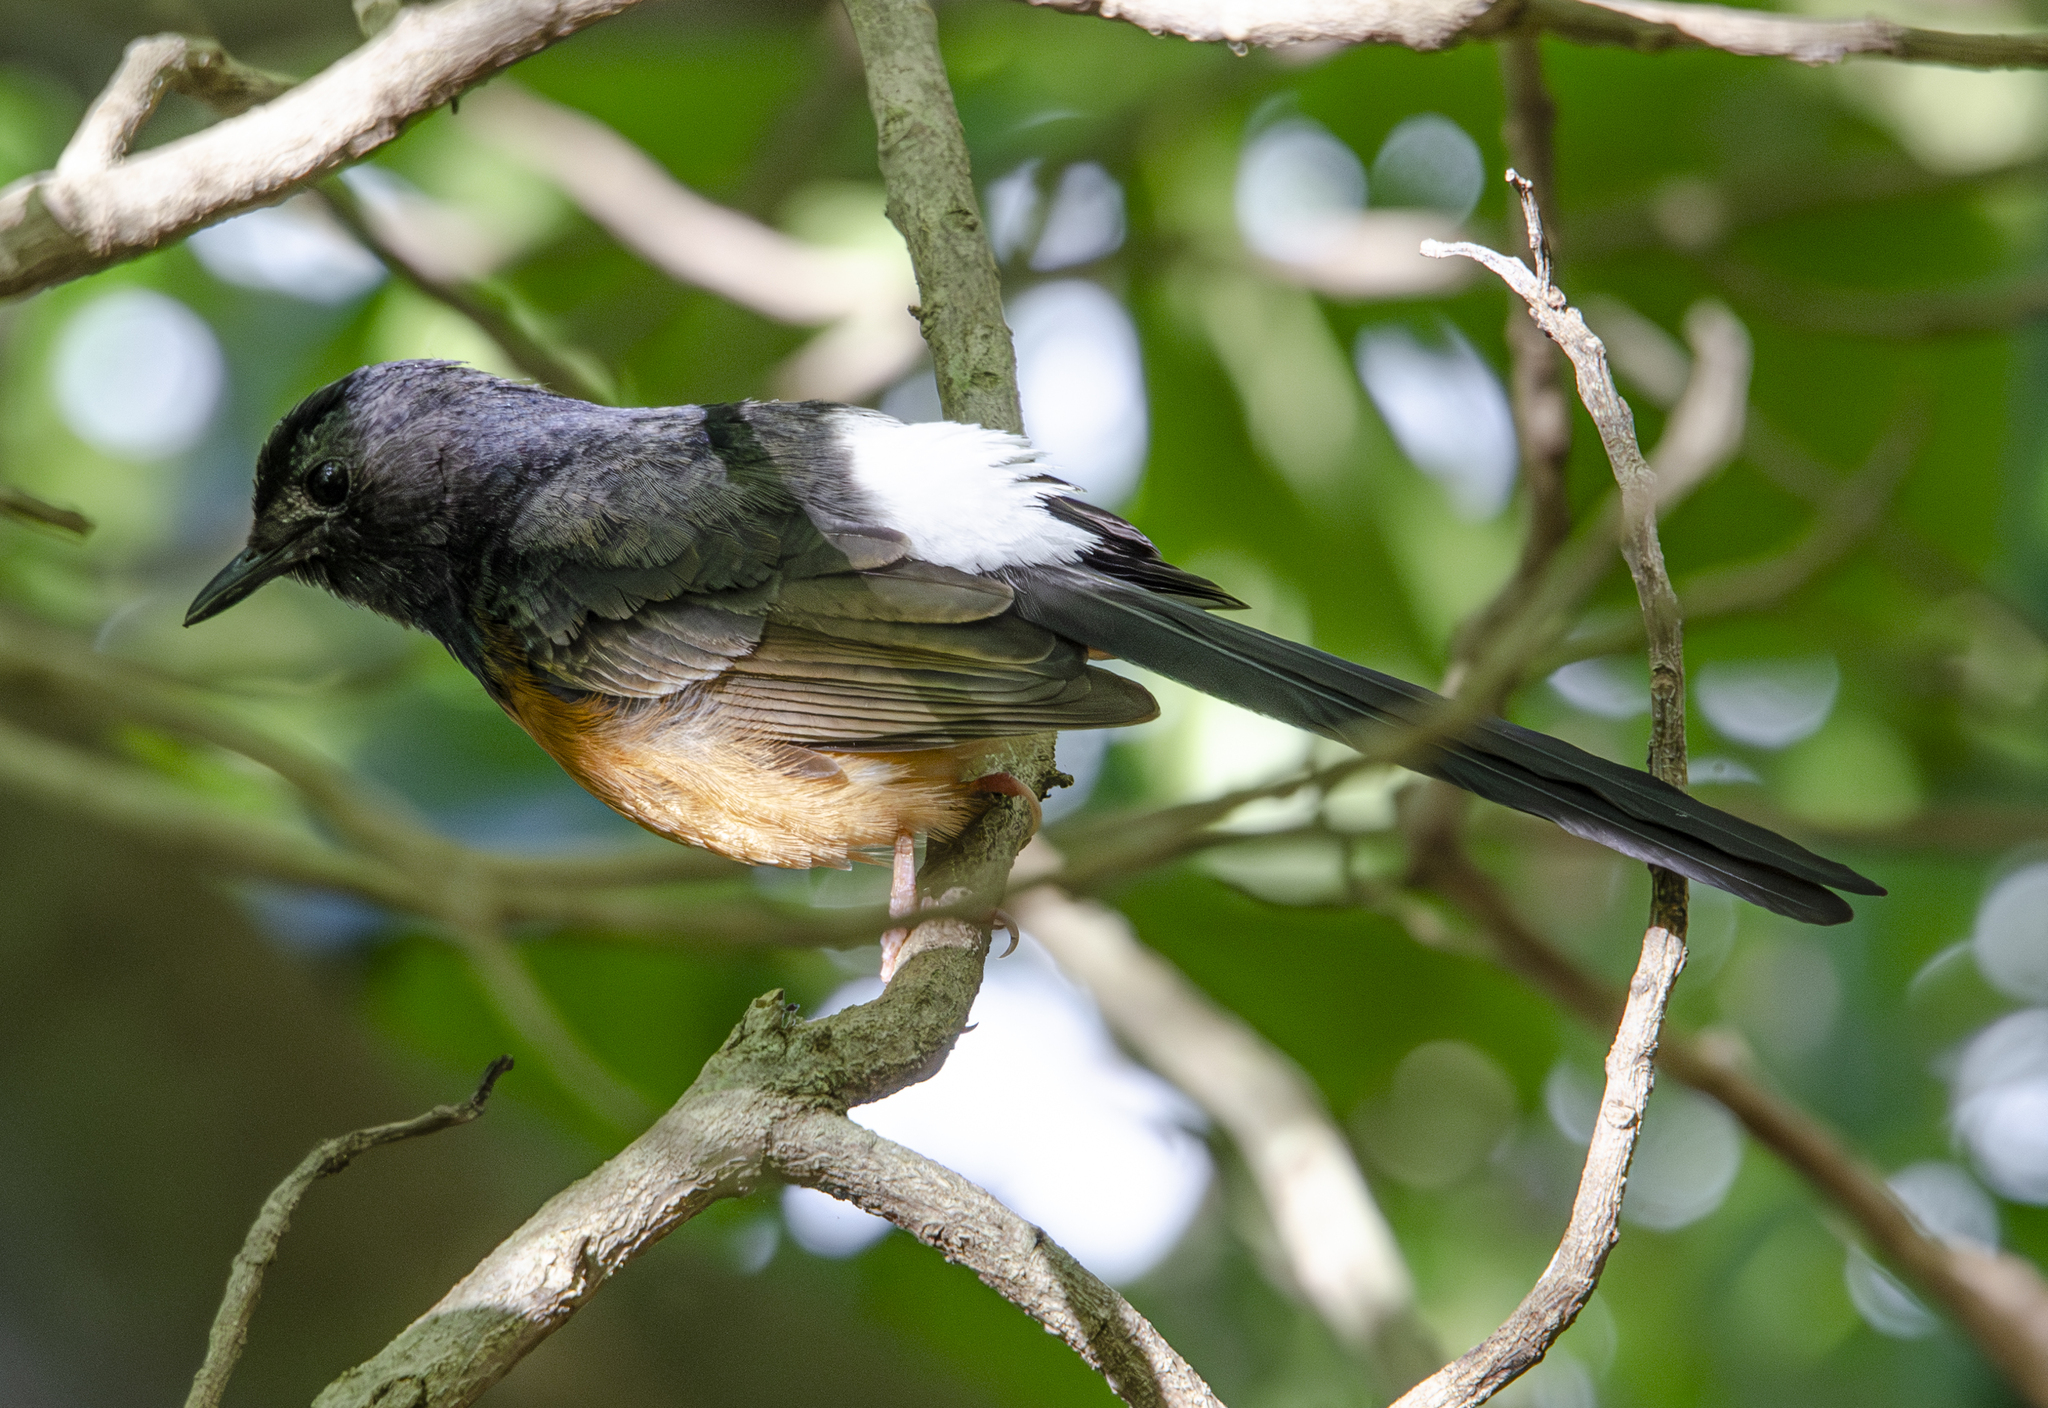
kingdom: Animalia
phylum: Chordata
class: Aves
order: Passeriformes
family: Muscicapidae
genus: Copsychus
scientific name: Copsychus malabaricus
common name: White-rumped shama
